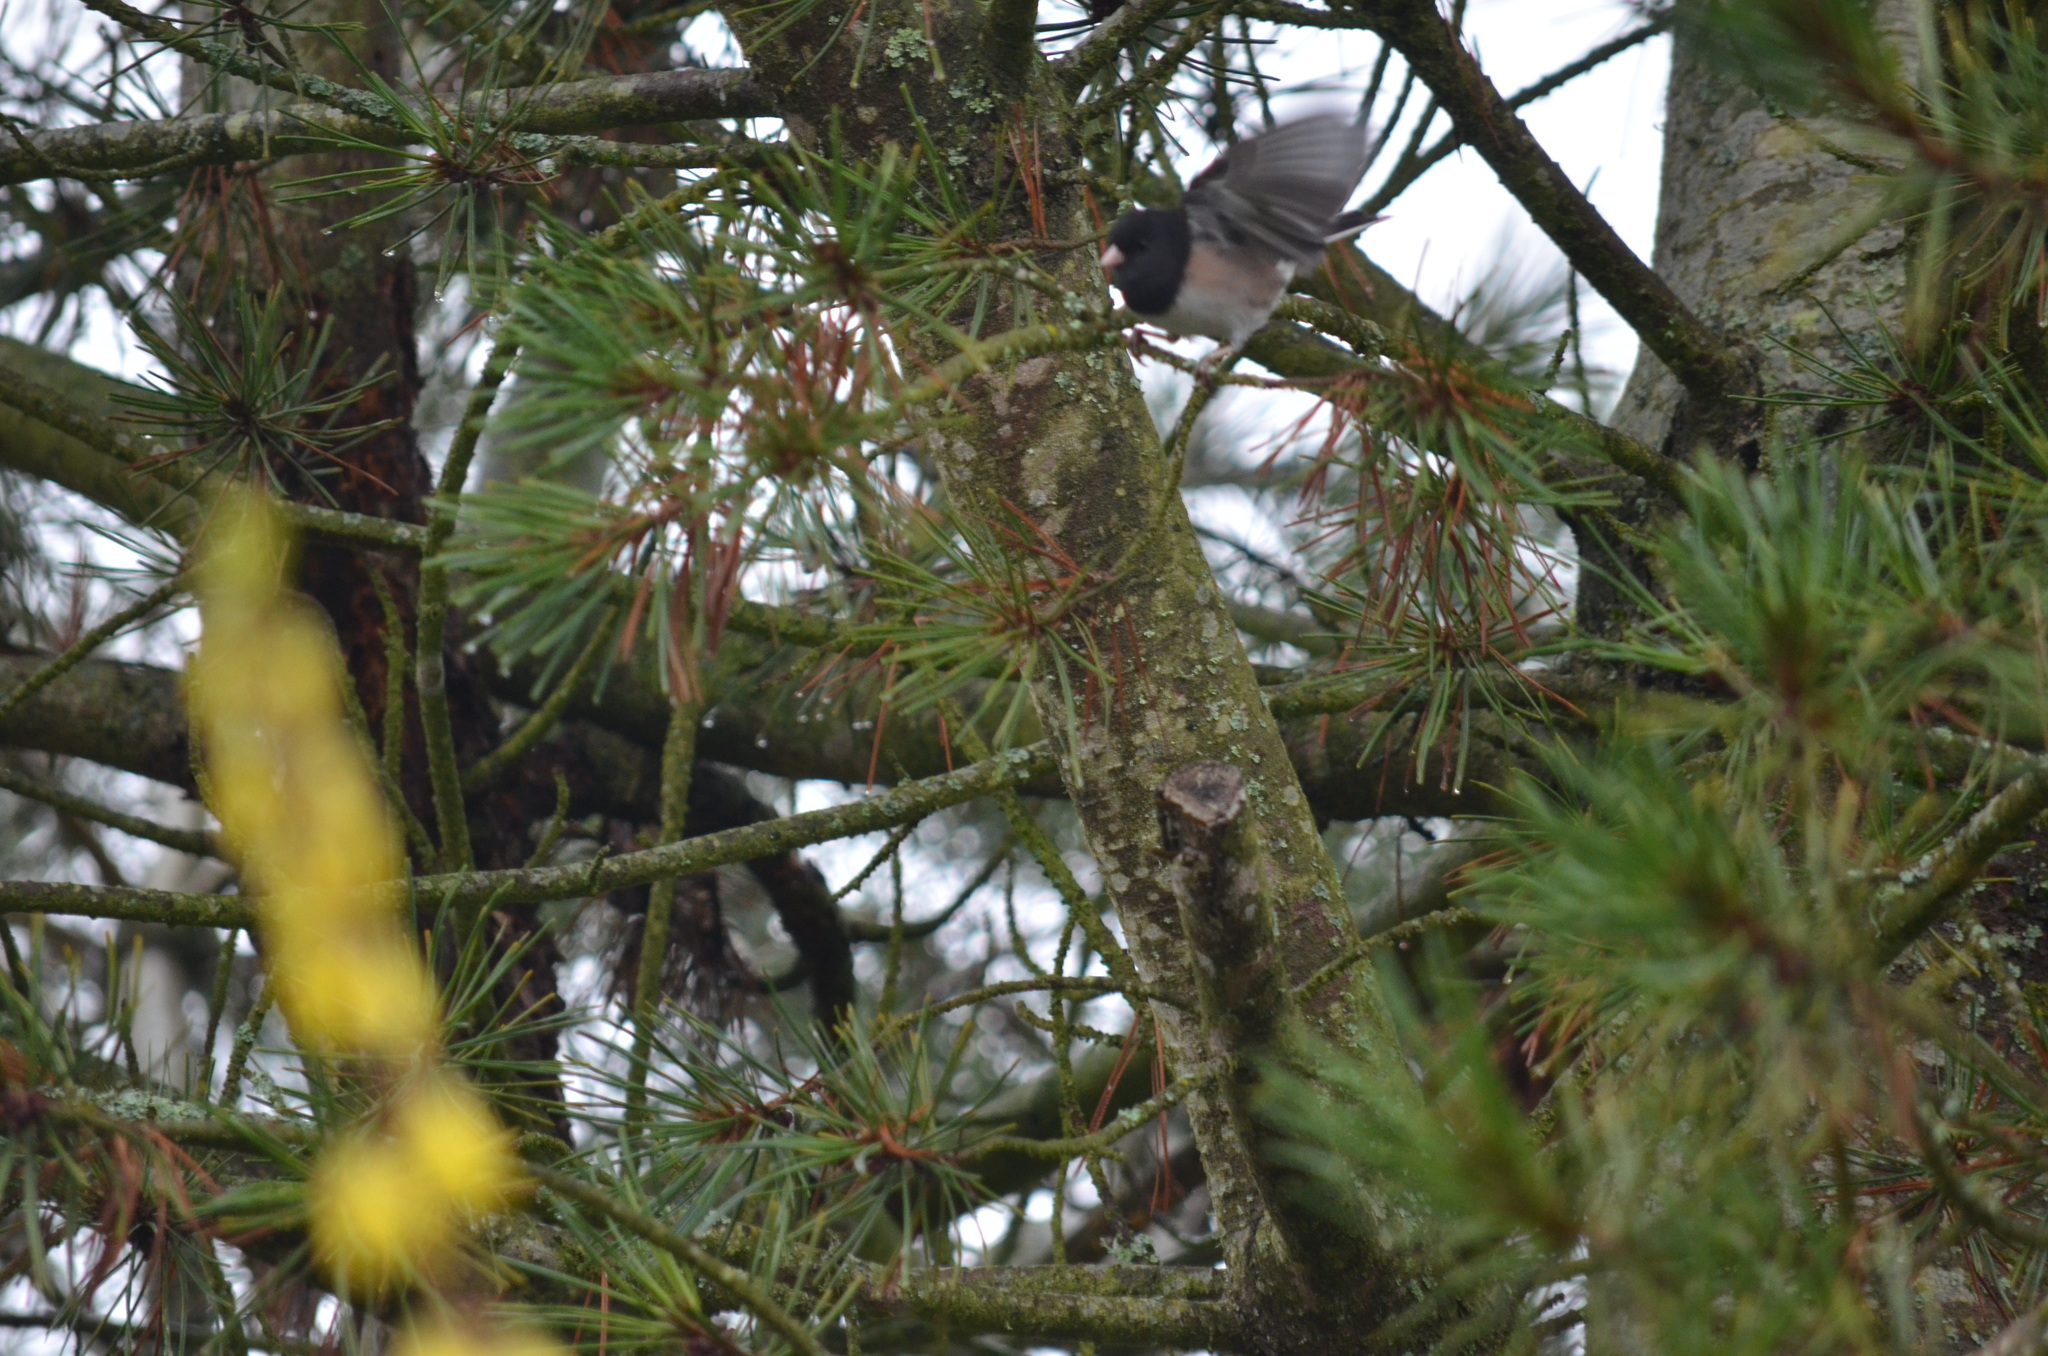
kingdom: Animalia
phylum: Chordata
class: Aves
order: Passeriformes
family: Passerellidae
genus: Junco
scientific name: Junco hyemalis
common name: Dark-eyed junco
